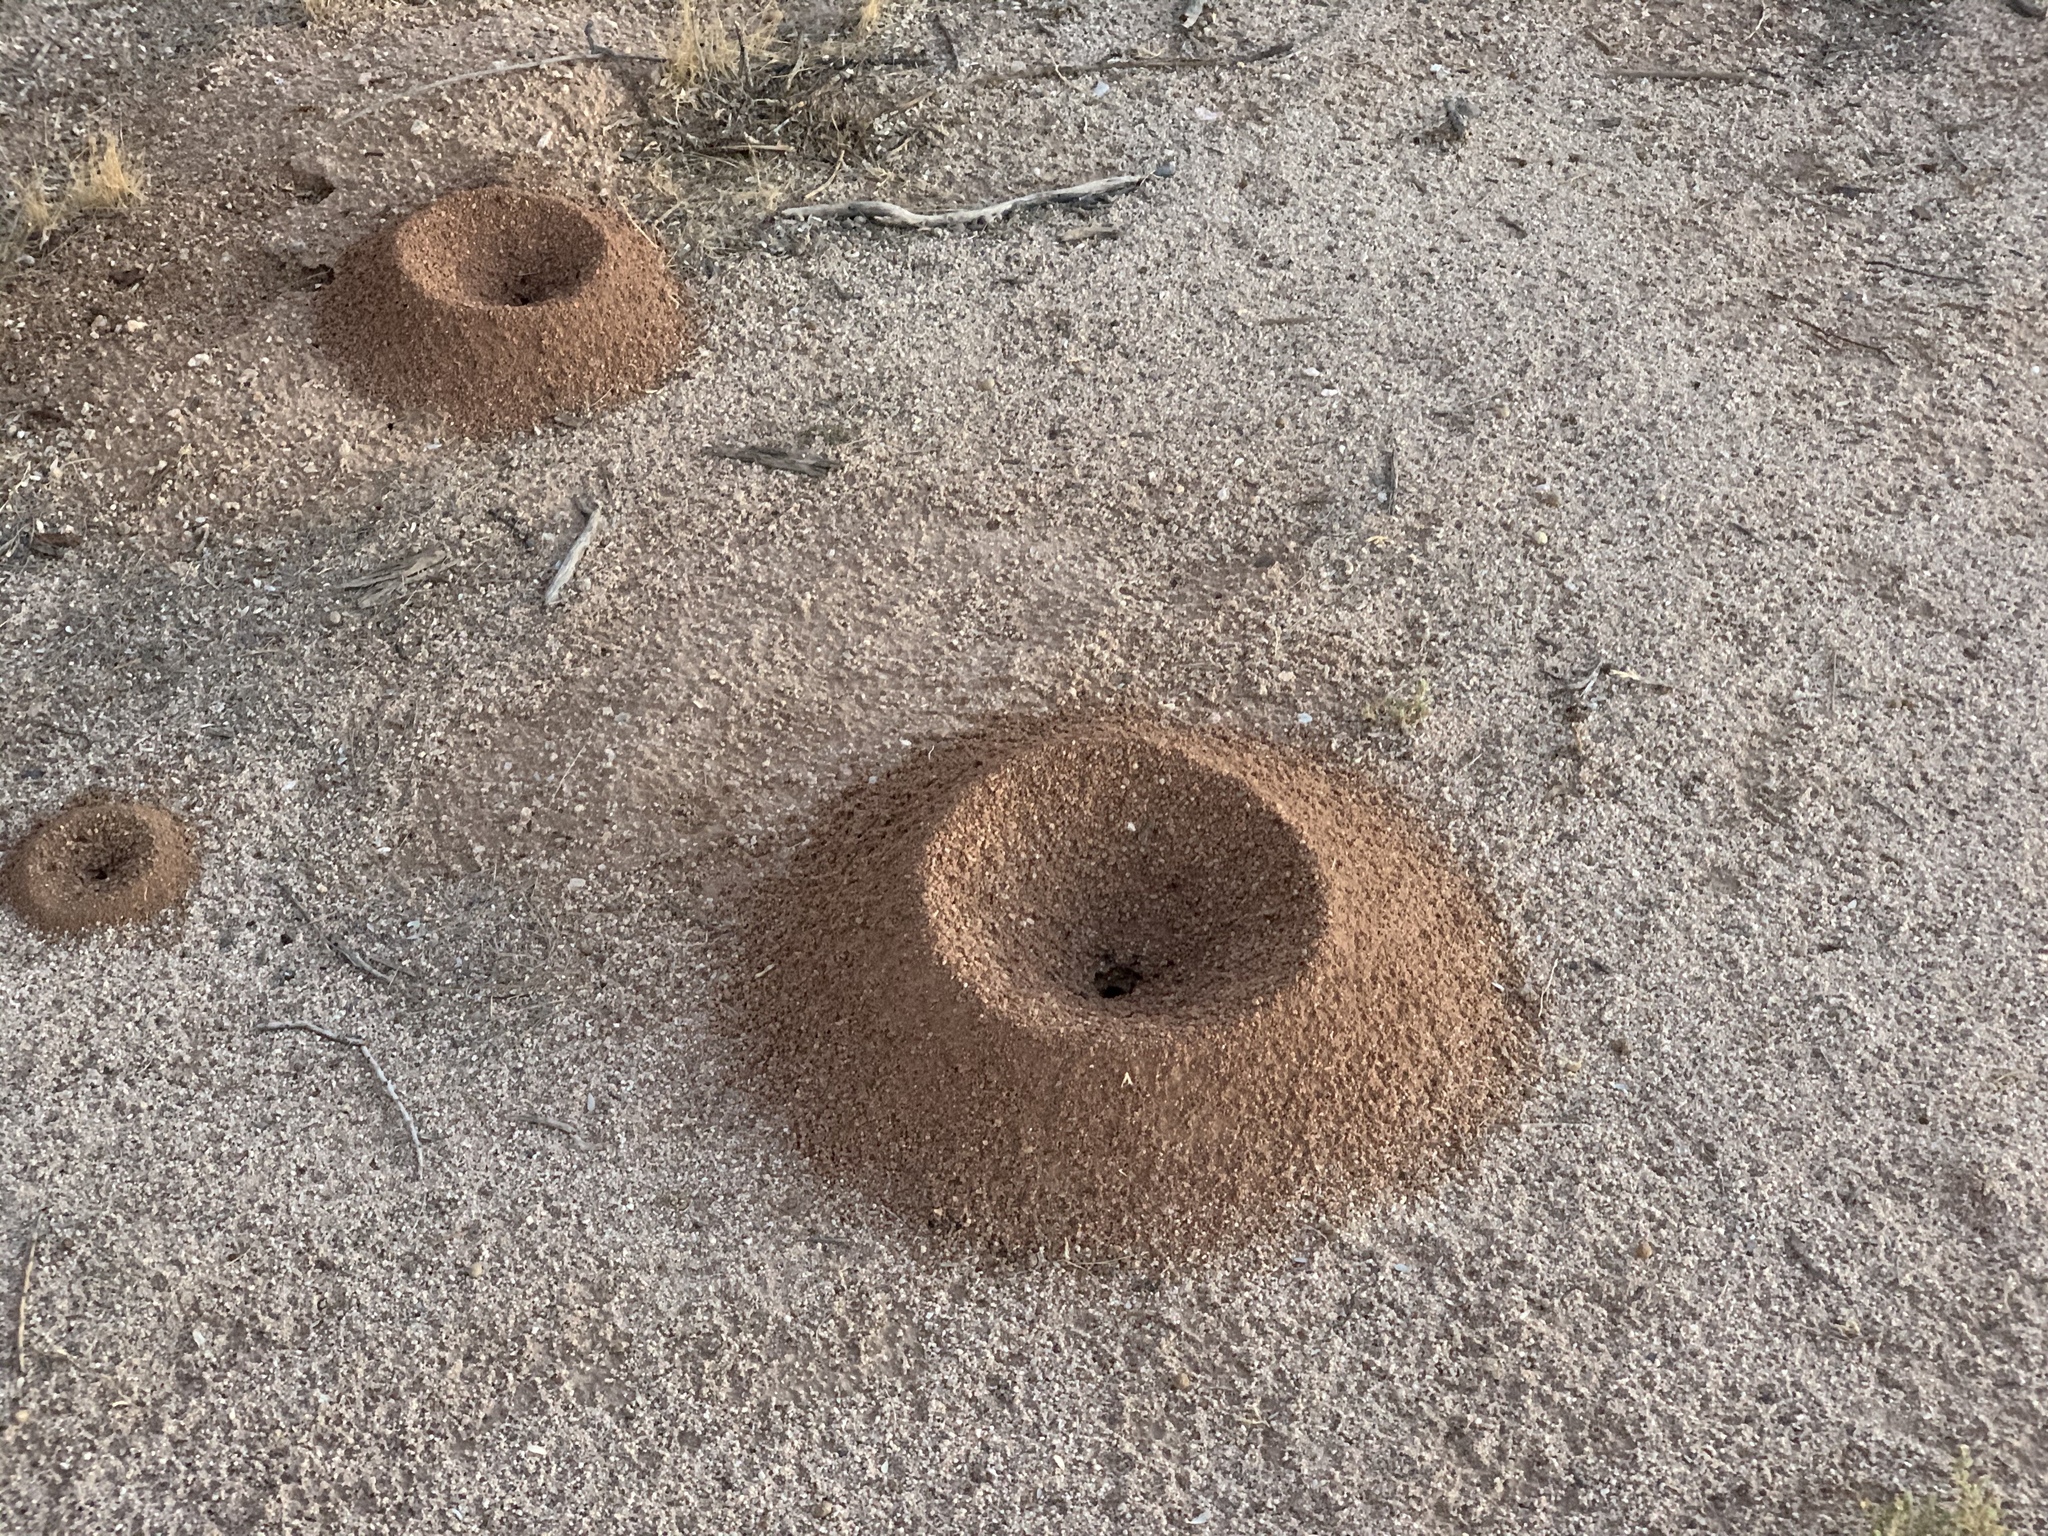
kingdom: Animalia
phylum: Arthropoda
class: Insecta
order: Hymenoptera
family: Formicidae
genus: Acromyrmex
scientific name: Acromyrmex versicolor
